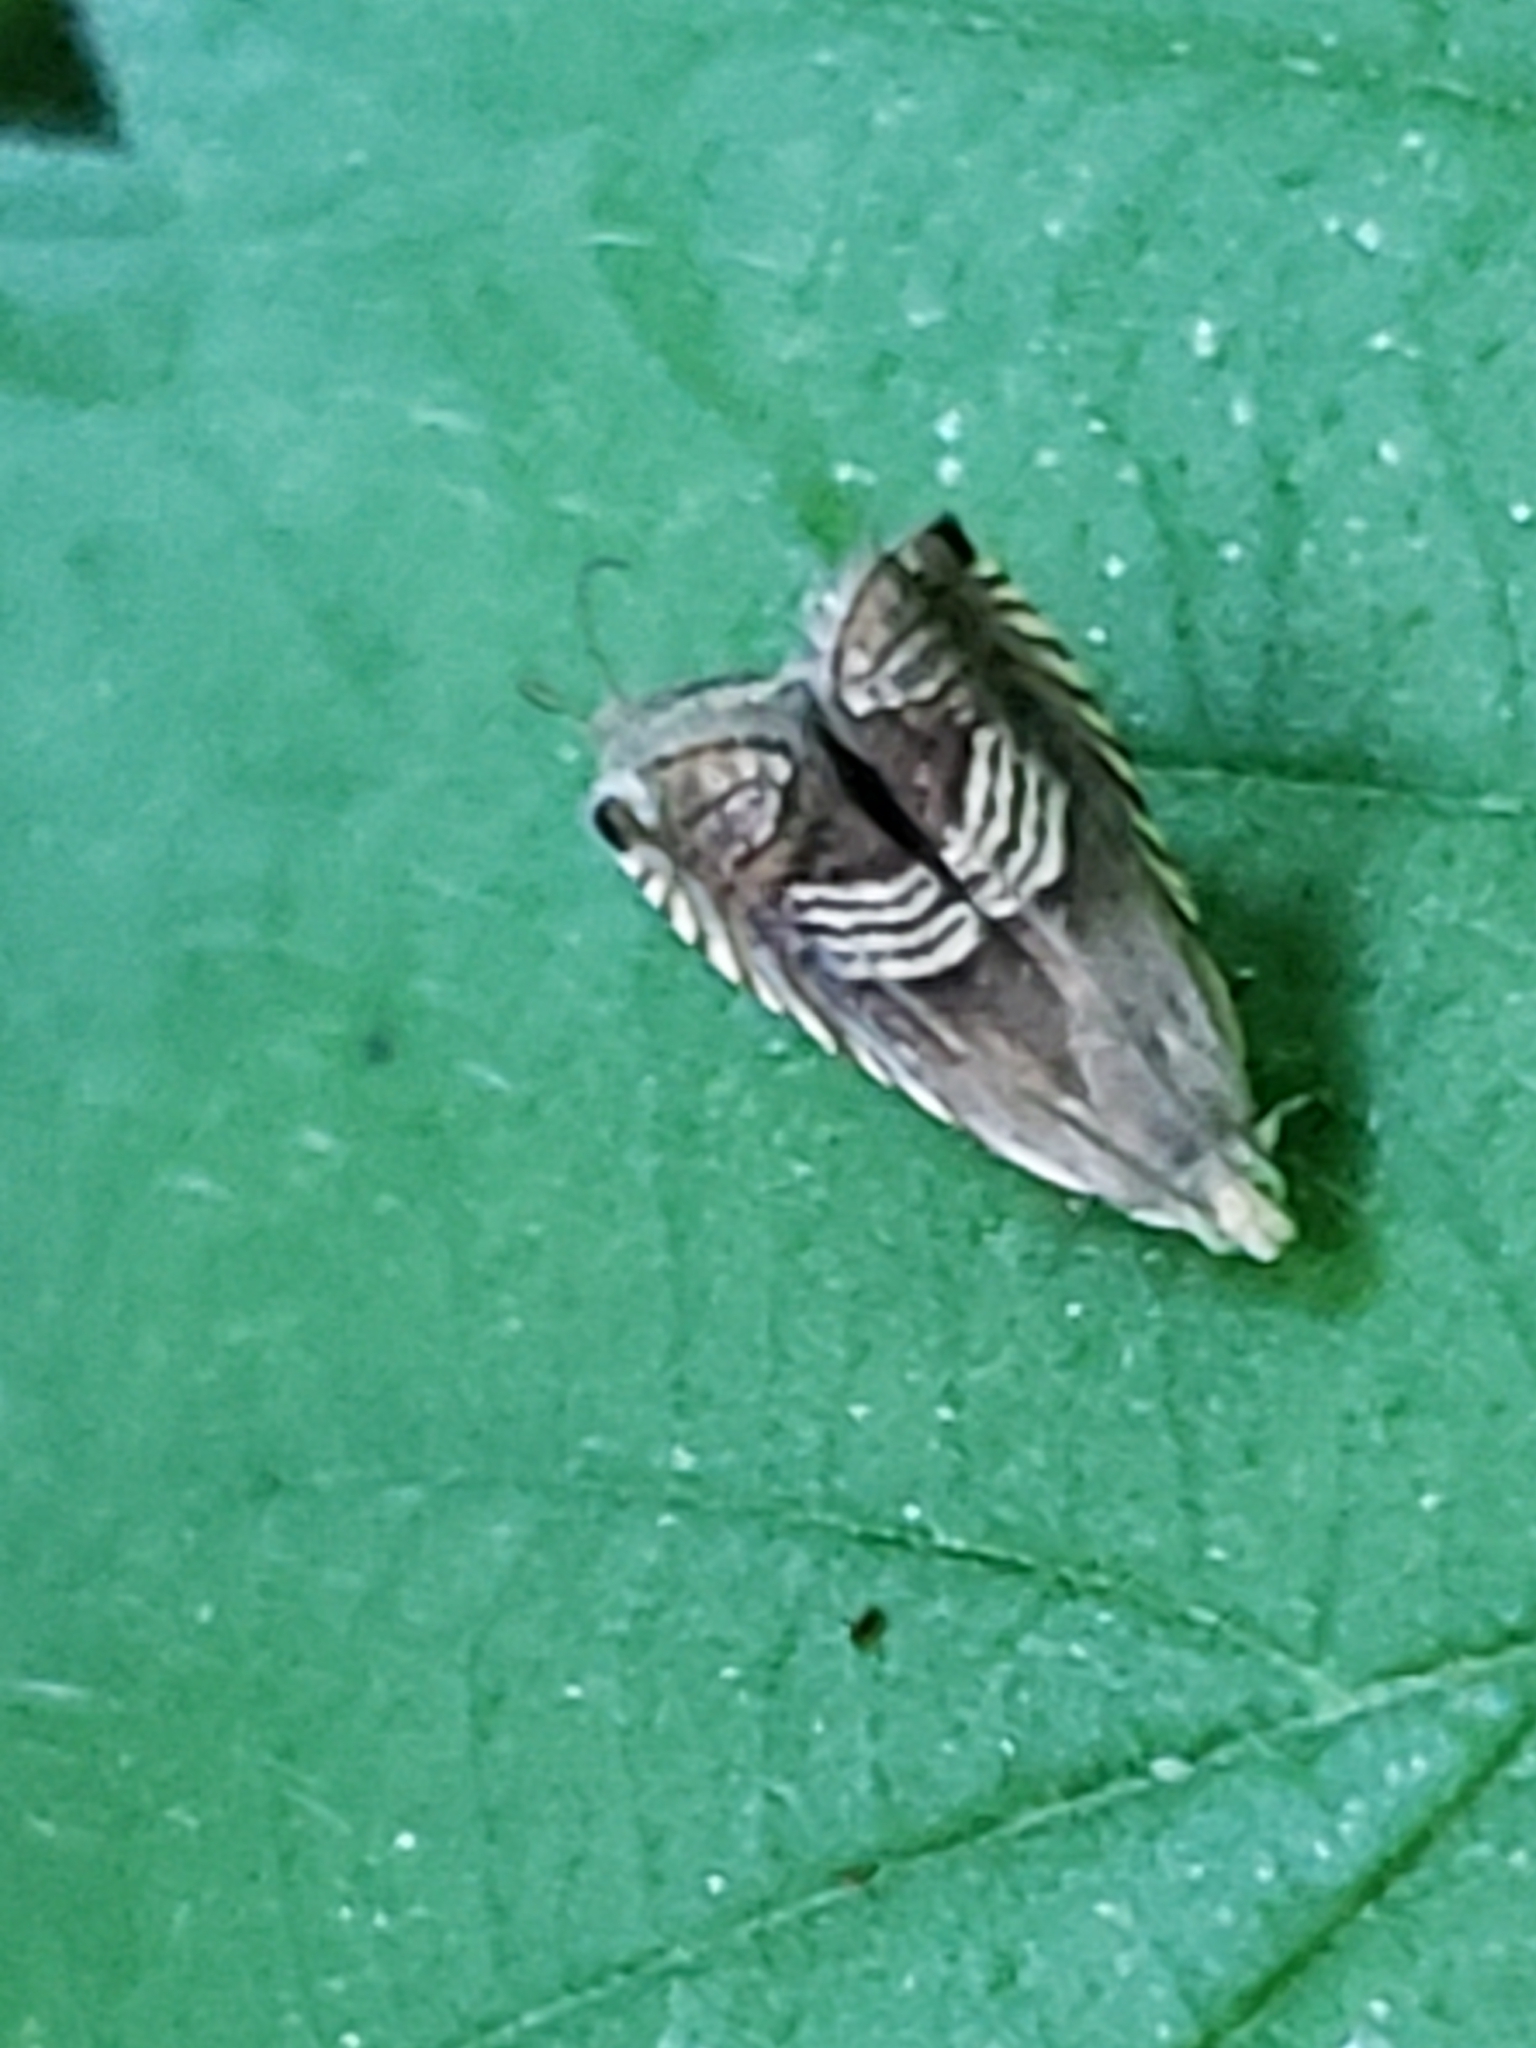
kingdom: Animalia
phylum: Arthropoda
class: Insecta
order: Lepidoptera
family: Tortricidae
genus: Grapholita
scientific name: Grapholita tristrigana
